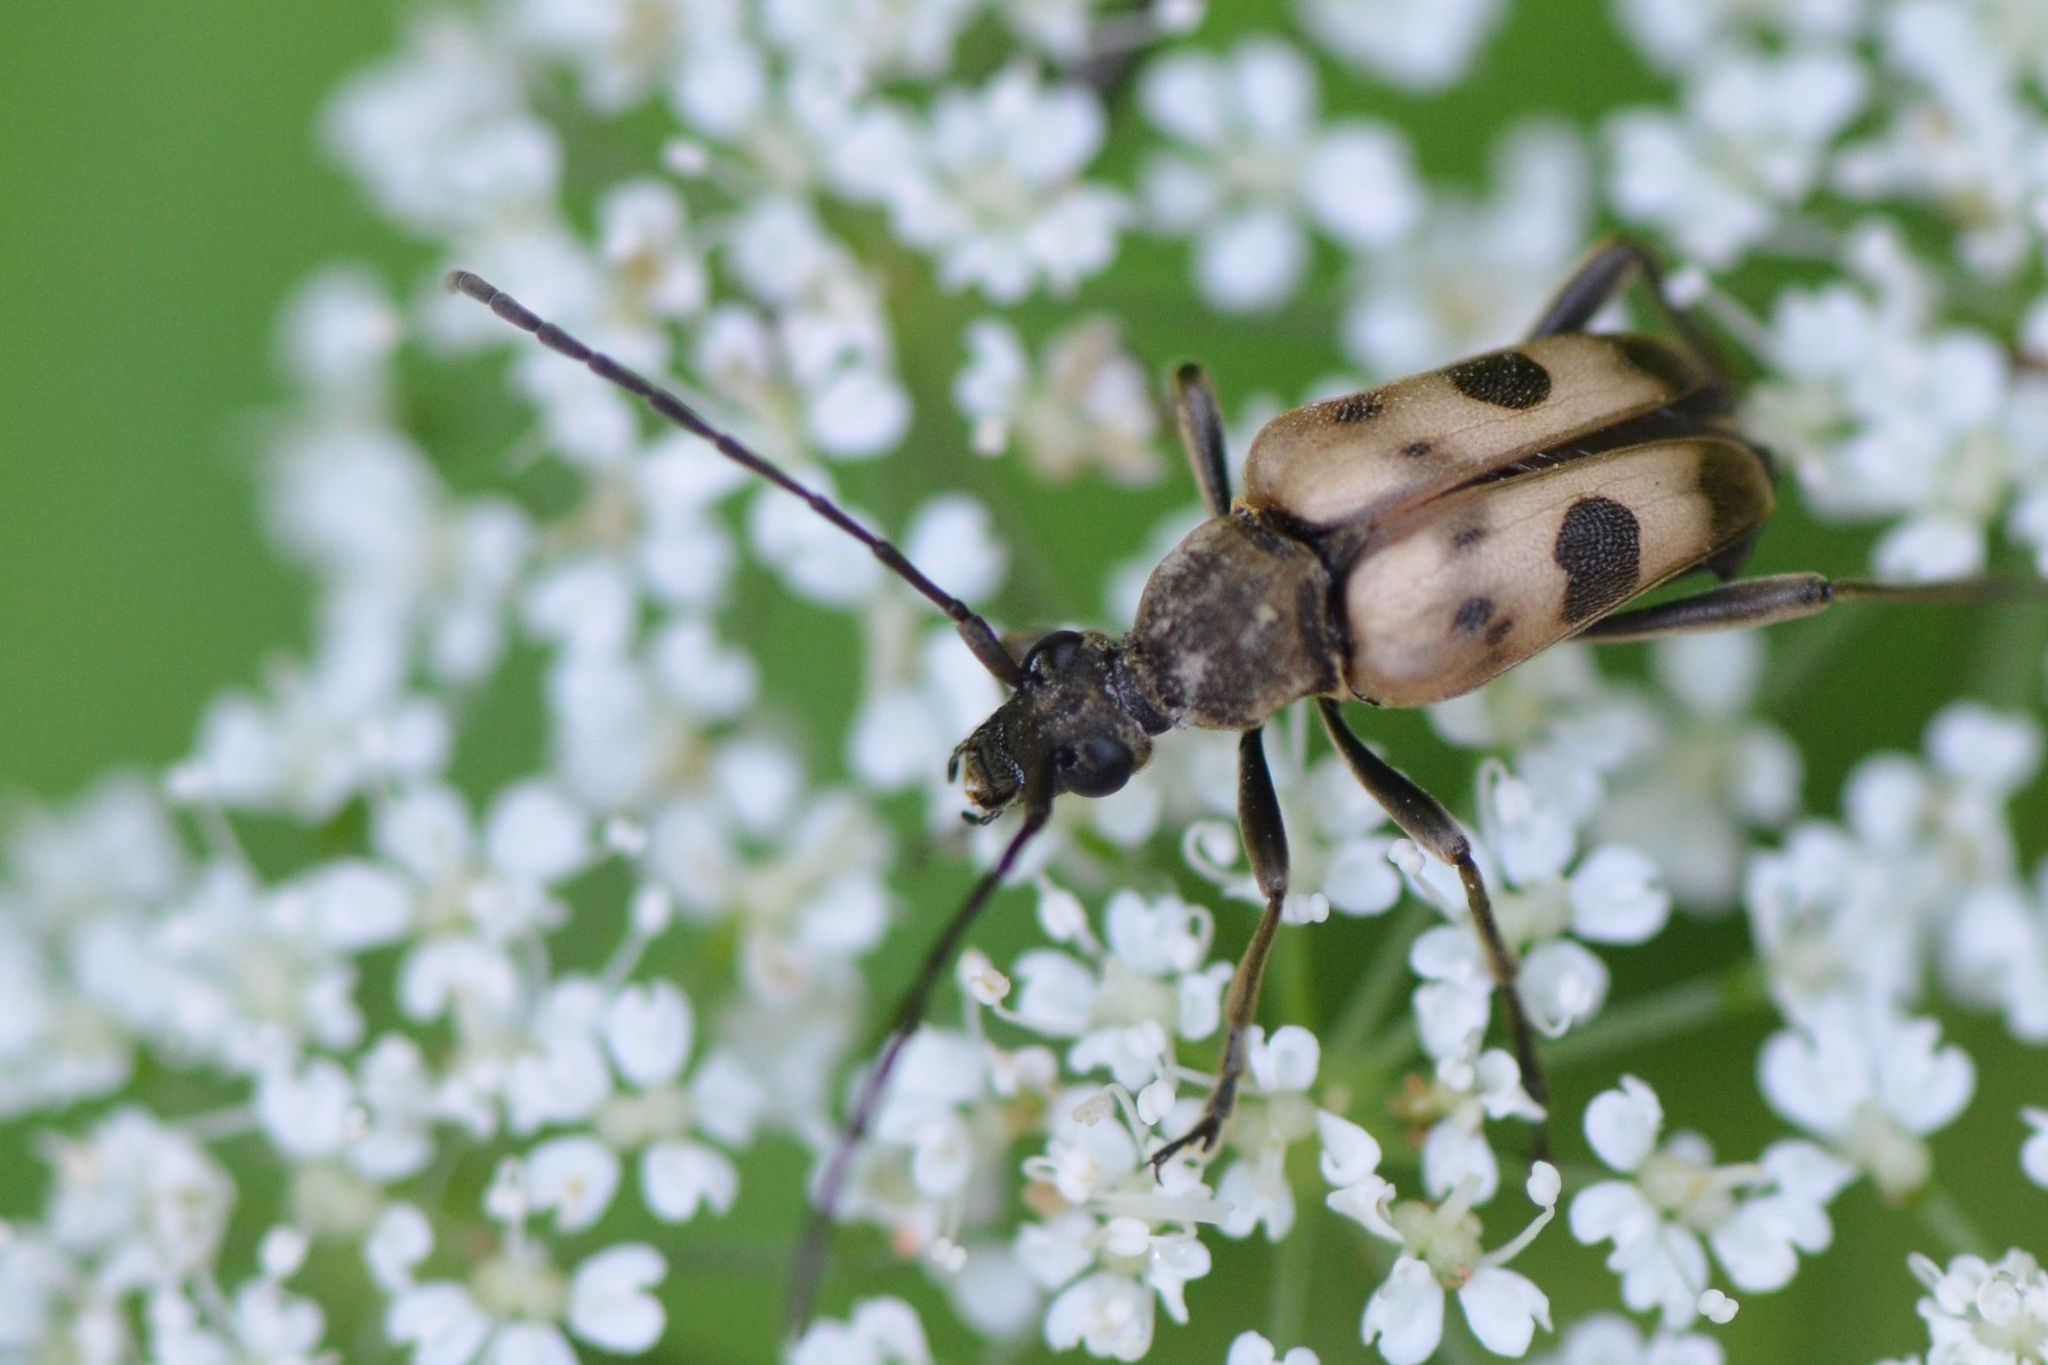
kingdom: Animalia
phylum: Arthropoda
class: Insecta
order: Coleoptera
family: Cerambycidae
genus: Pachytodes
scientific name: Pachytodes cerambyciformis
